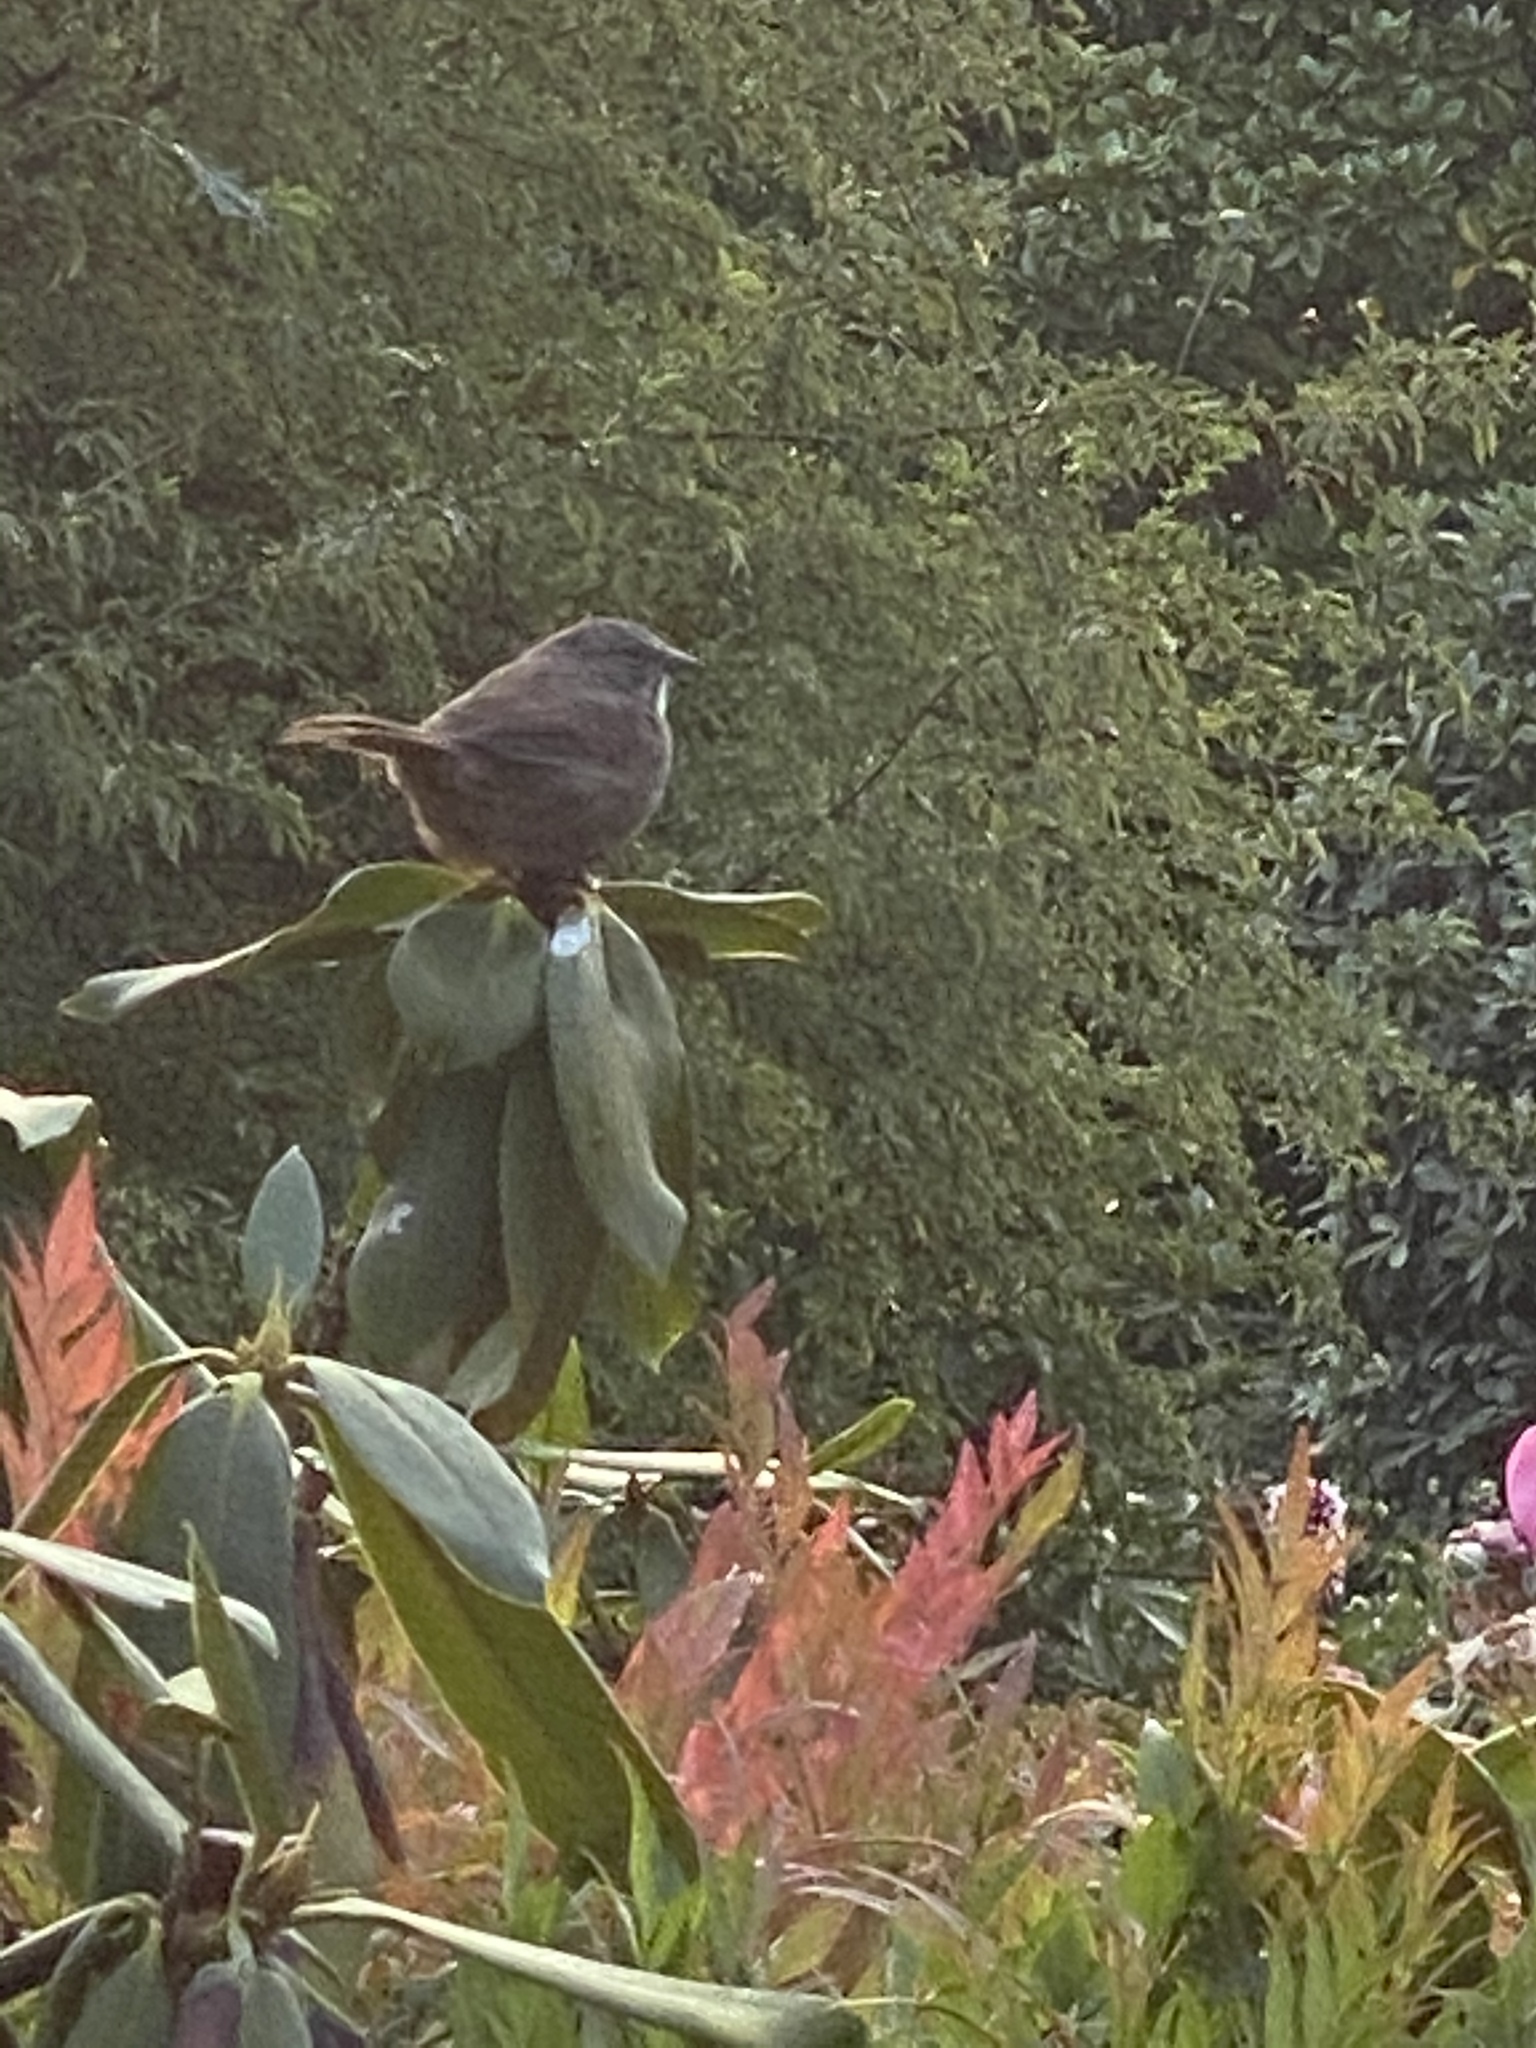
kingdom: Animalia
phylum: Chordata
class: Aves
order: Passeriformes
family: Passerellidae
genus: Melospiza
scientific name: Melospiza melodia
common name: Song sparrow
